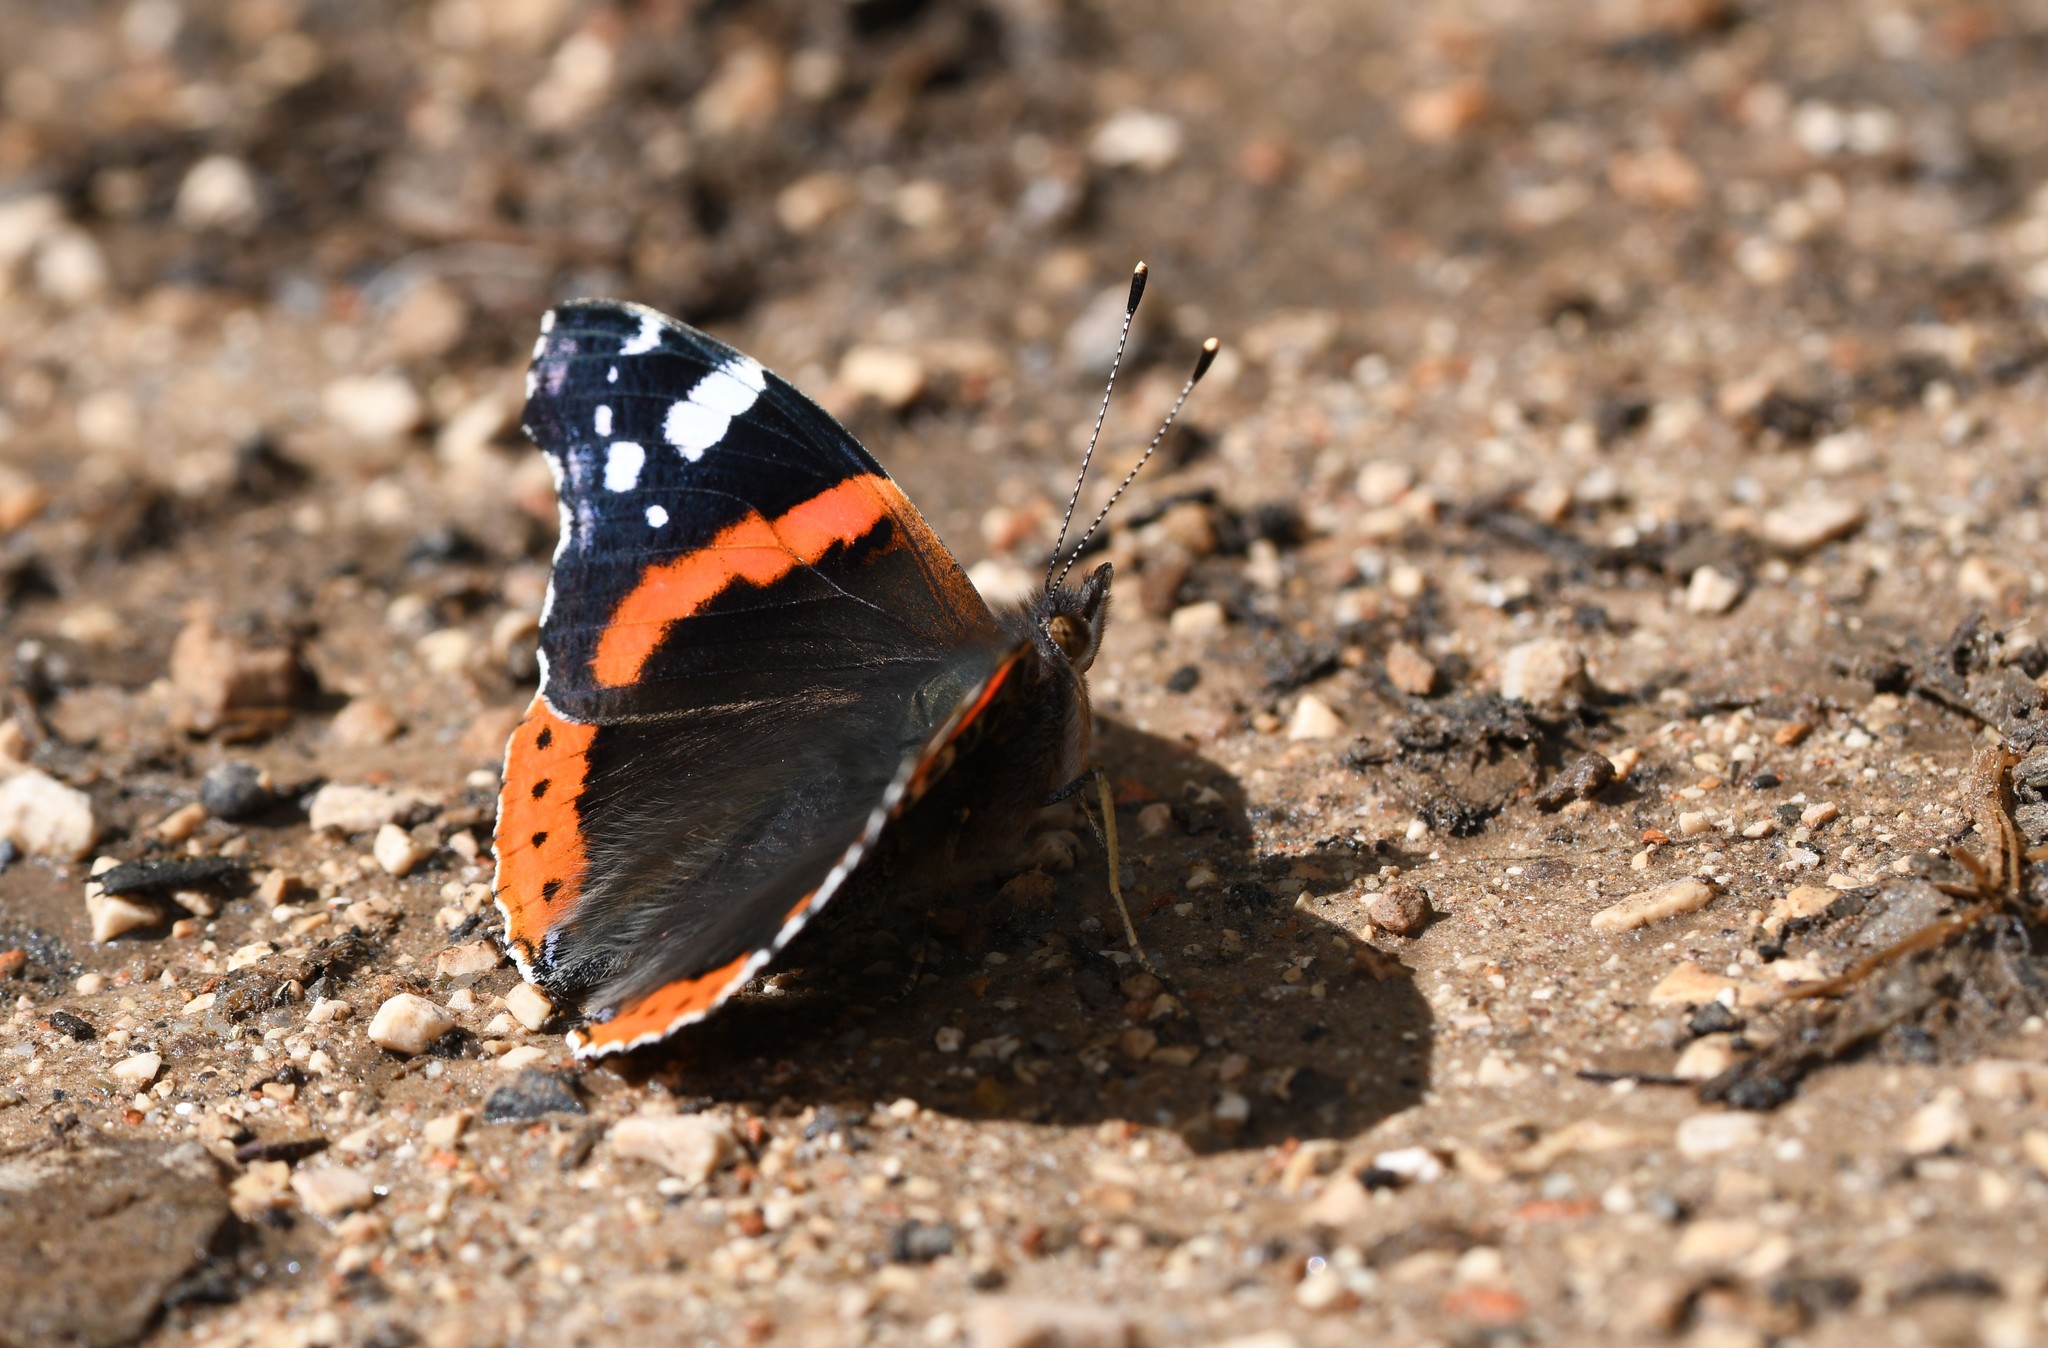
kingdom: Animalia
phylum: Arthropoda
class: Insecta
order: Lepidoptera
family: Nymphalidae
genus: Vanessa
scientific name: Vanessa atalanta
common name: Red admiral
